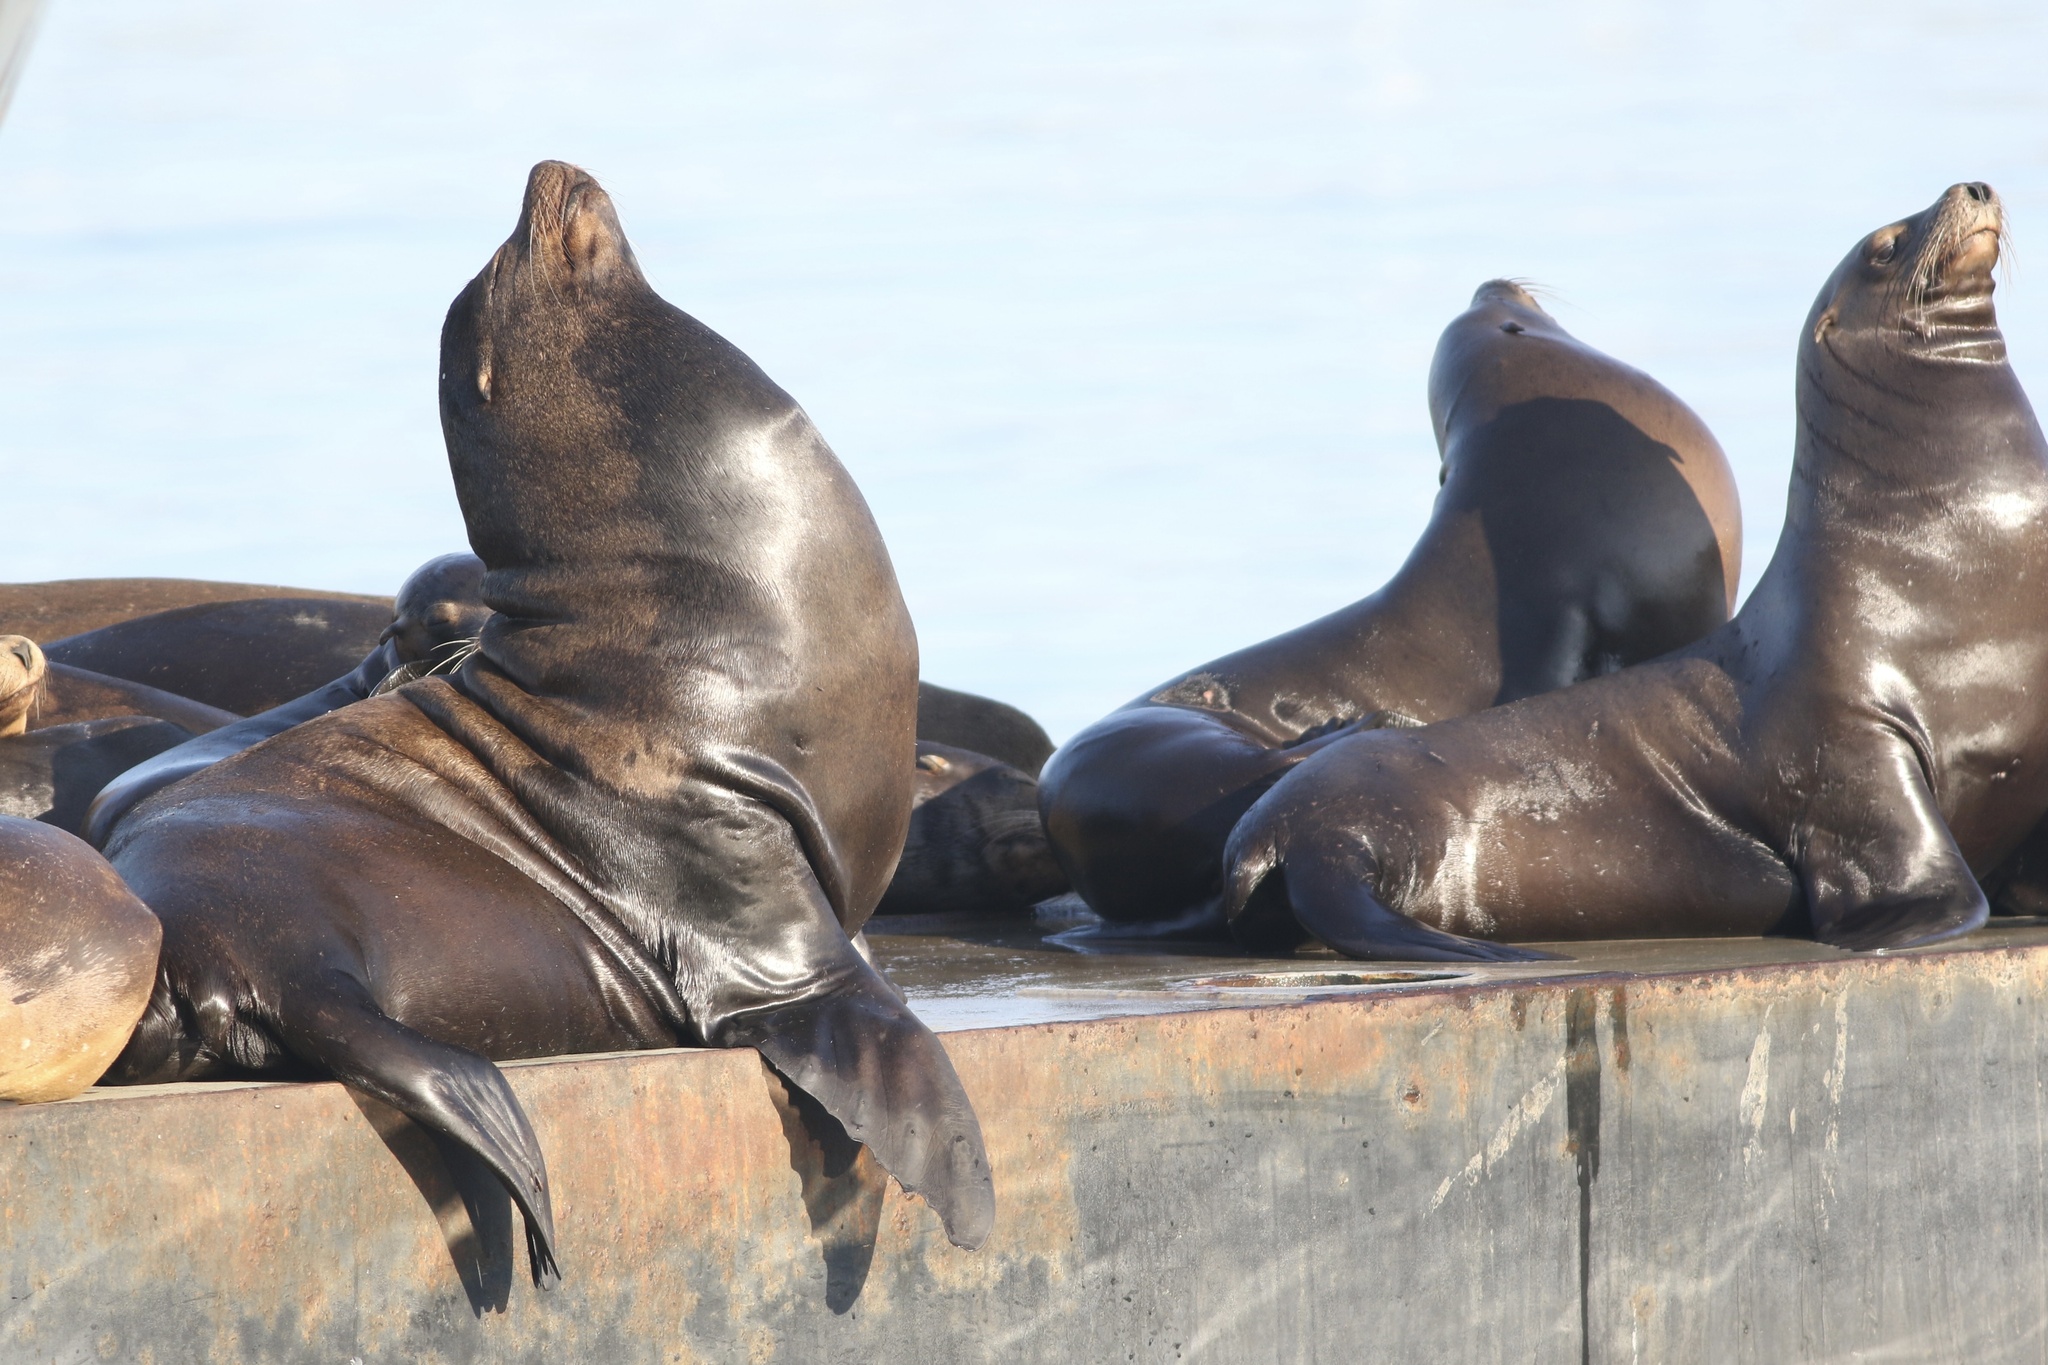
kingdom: Animalia
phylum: Chordata
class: Mammalia
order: Carnivora
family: Otariidae
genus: Zalophus
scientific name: Zalophus californianus
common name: California sea lion
